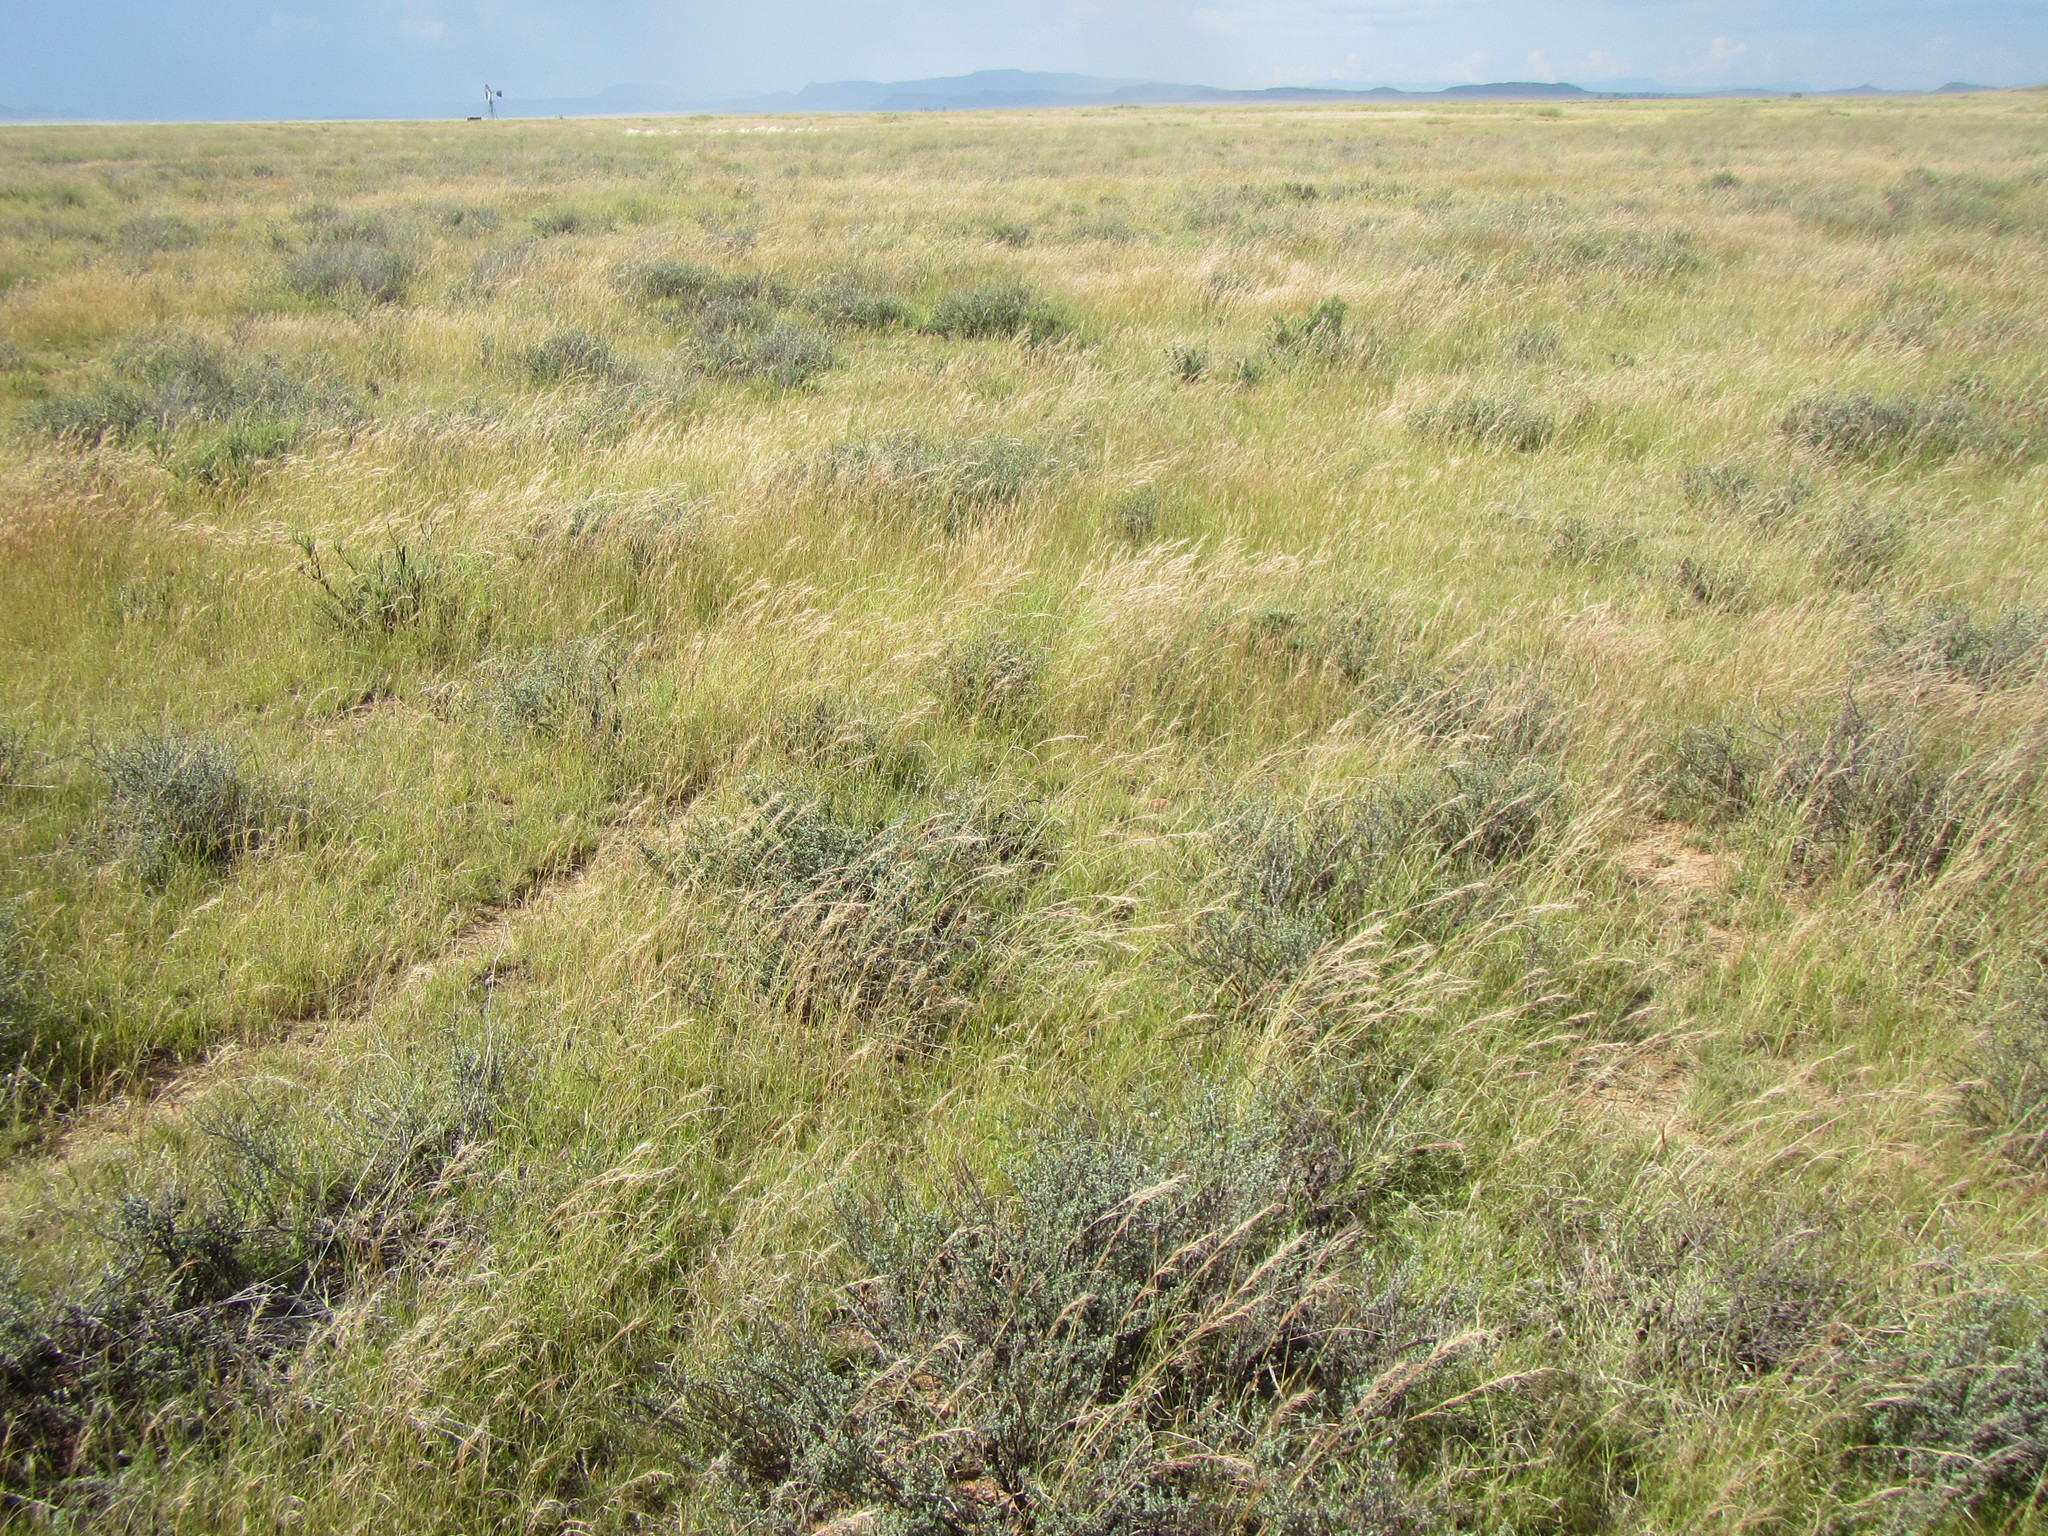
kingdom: Plantae
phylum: Tracheophyta
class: Magnoliopsida
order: Asterales
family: Asteraceae
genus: Pteronia
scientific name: Pteronia glauca
